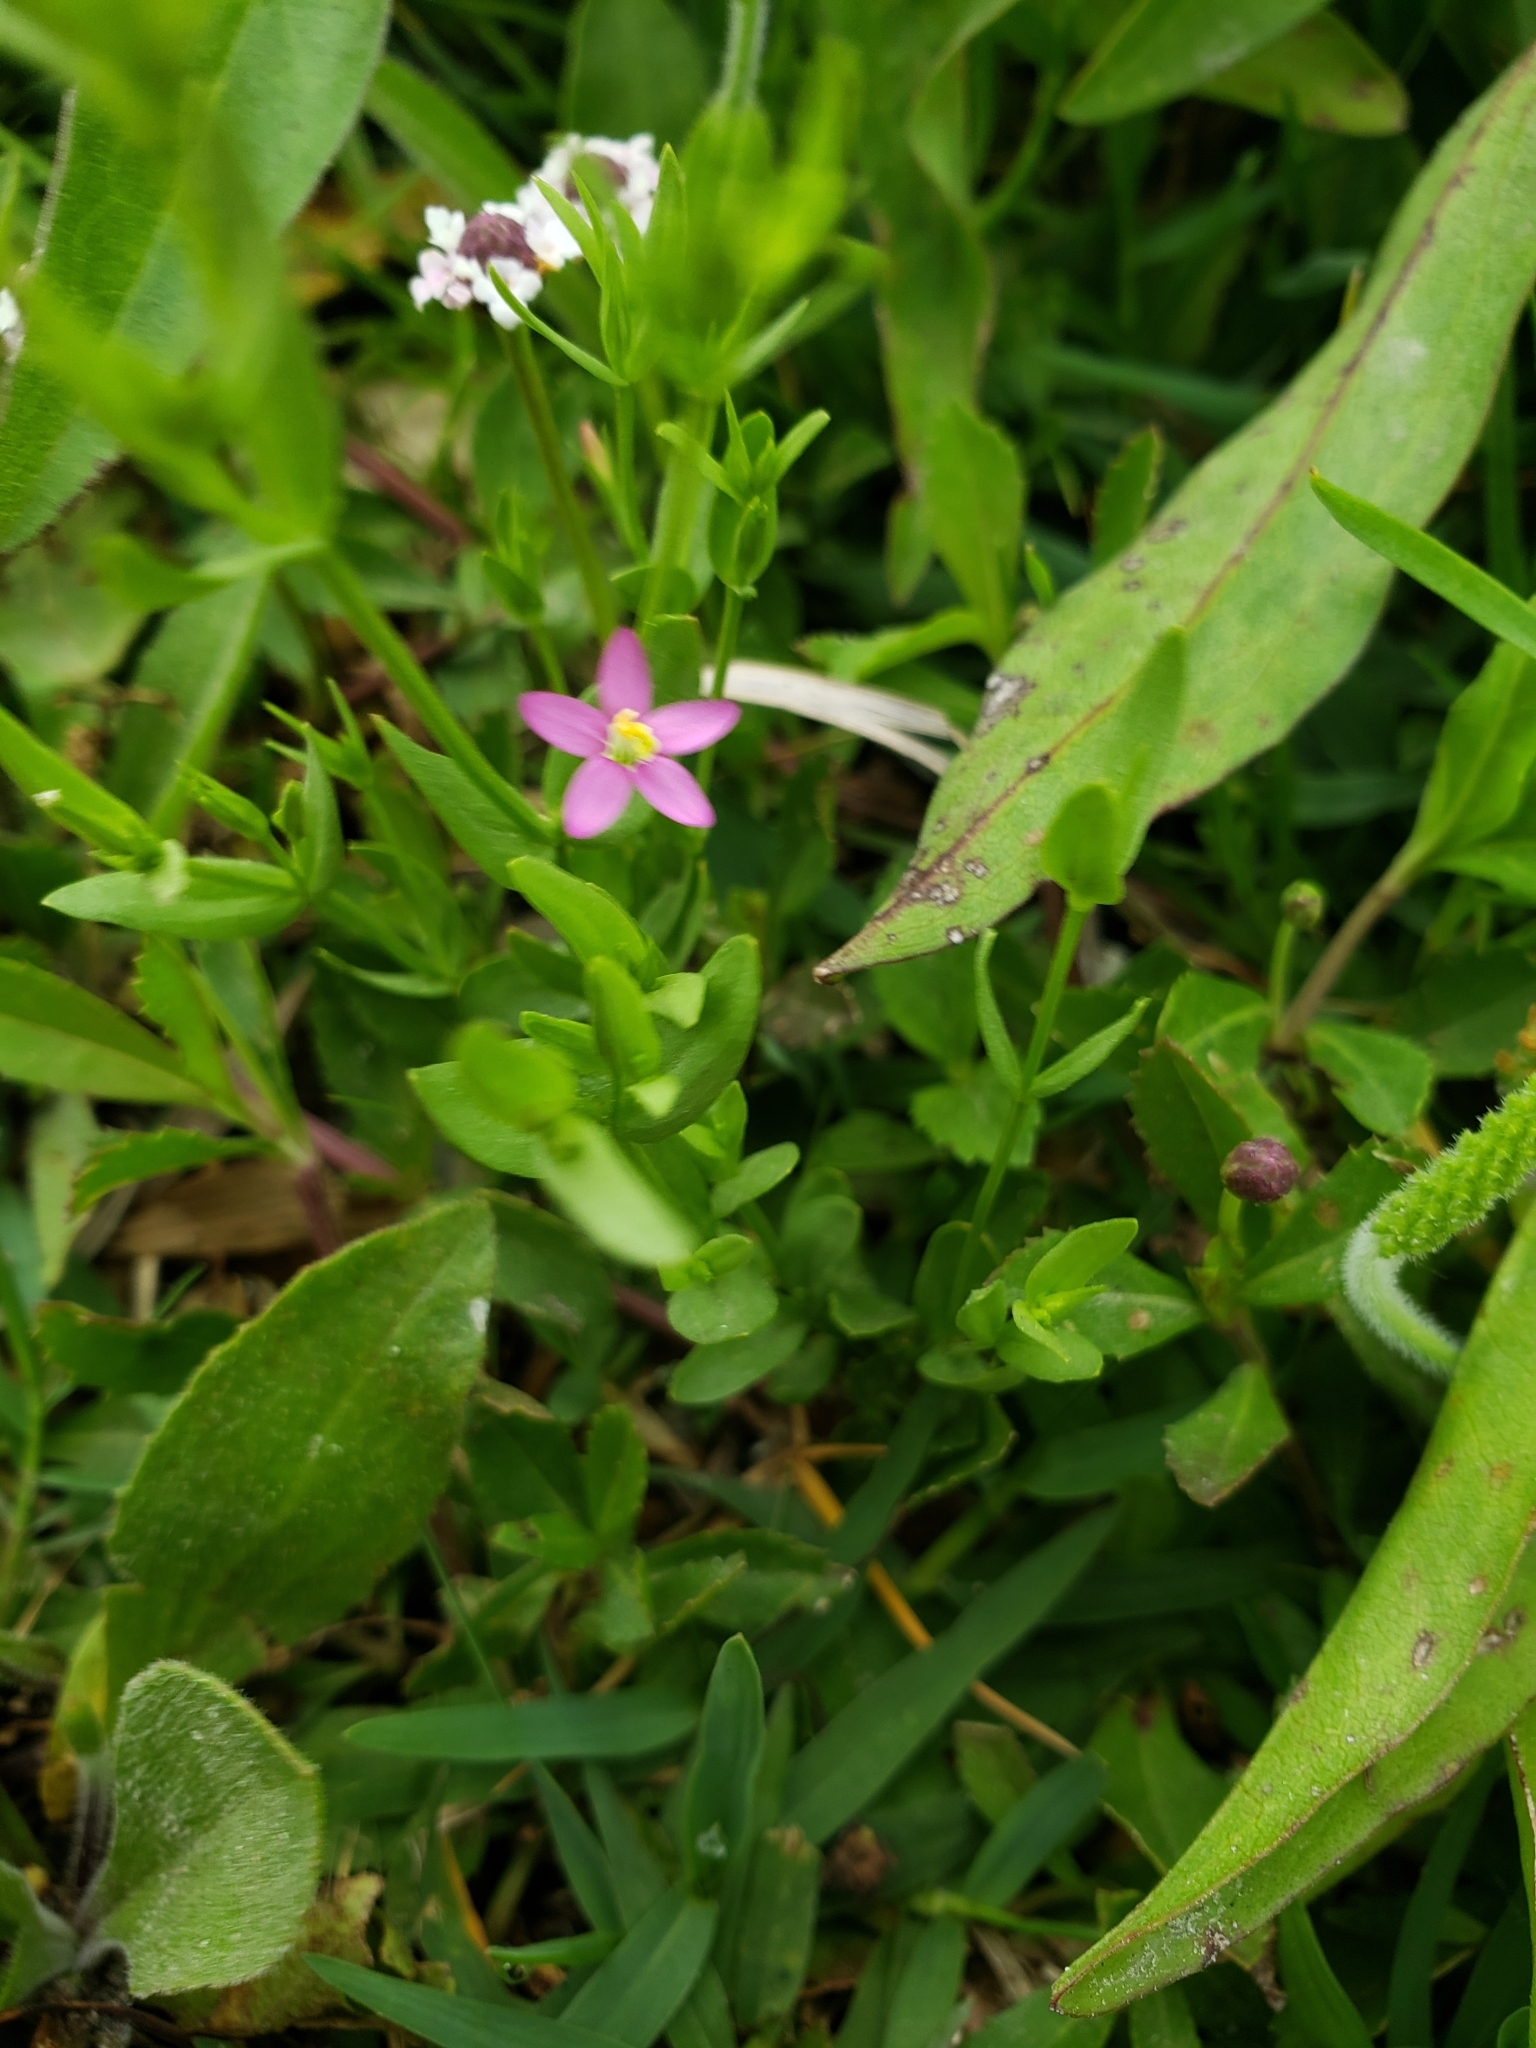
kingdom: Plantae
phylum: Tracheophyta
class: Magnoliopsida
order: Gentianales
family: Gentianaceae
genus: Centaurium
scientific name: Centaurium pulchellum
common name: Lesser centaury
